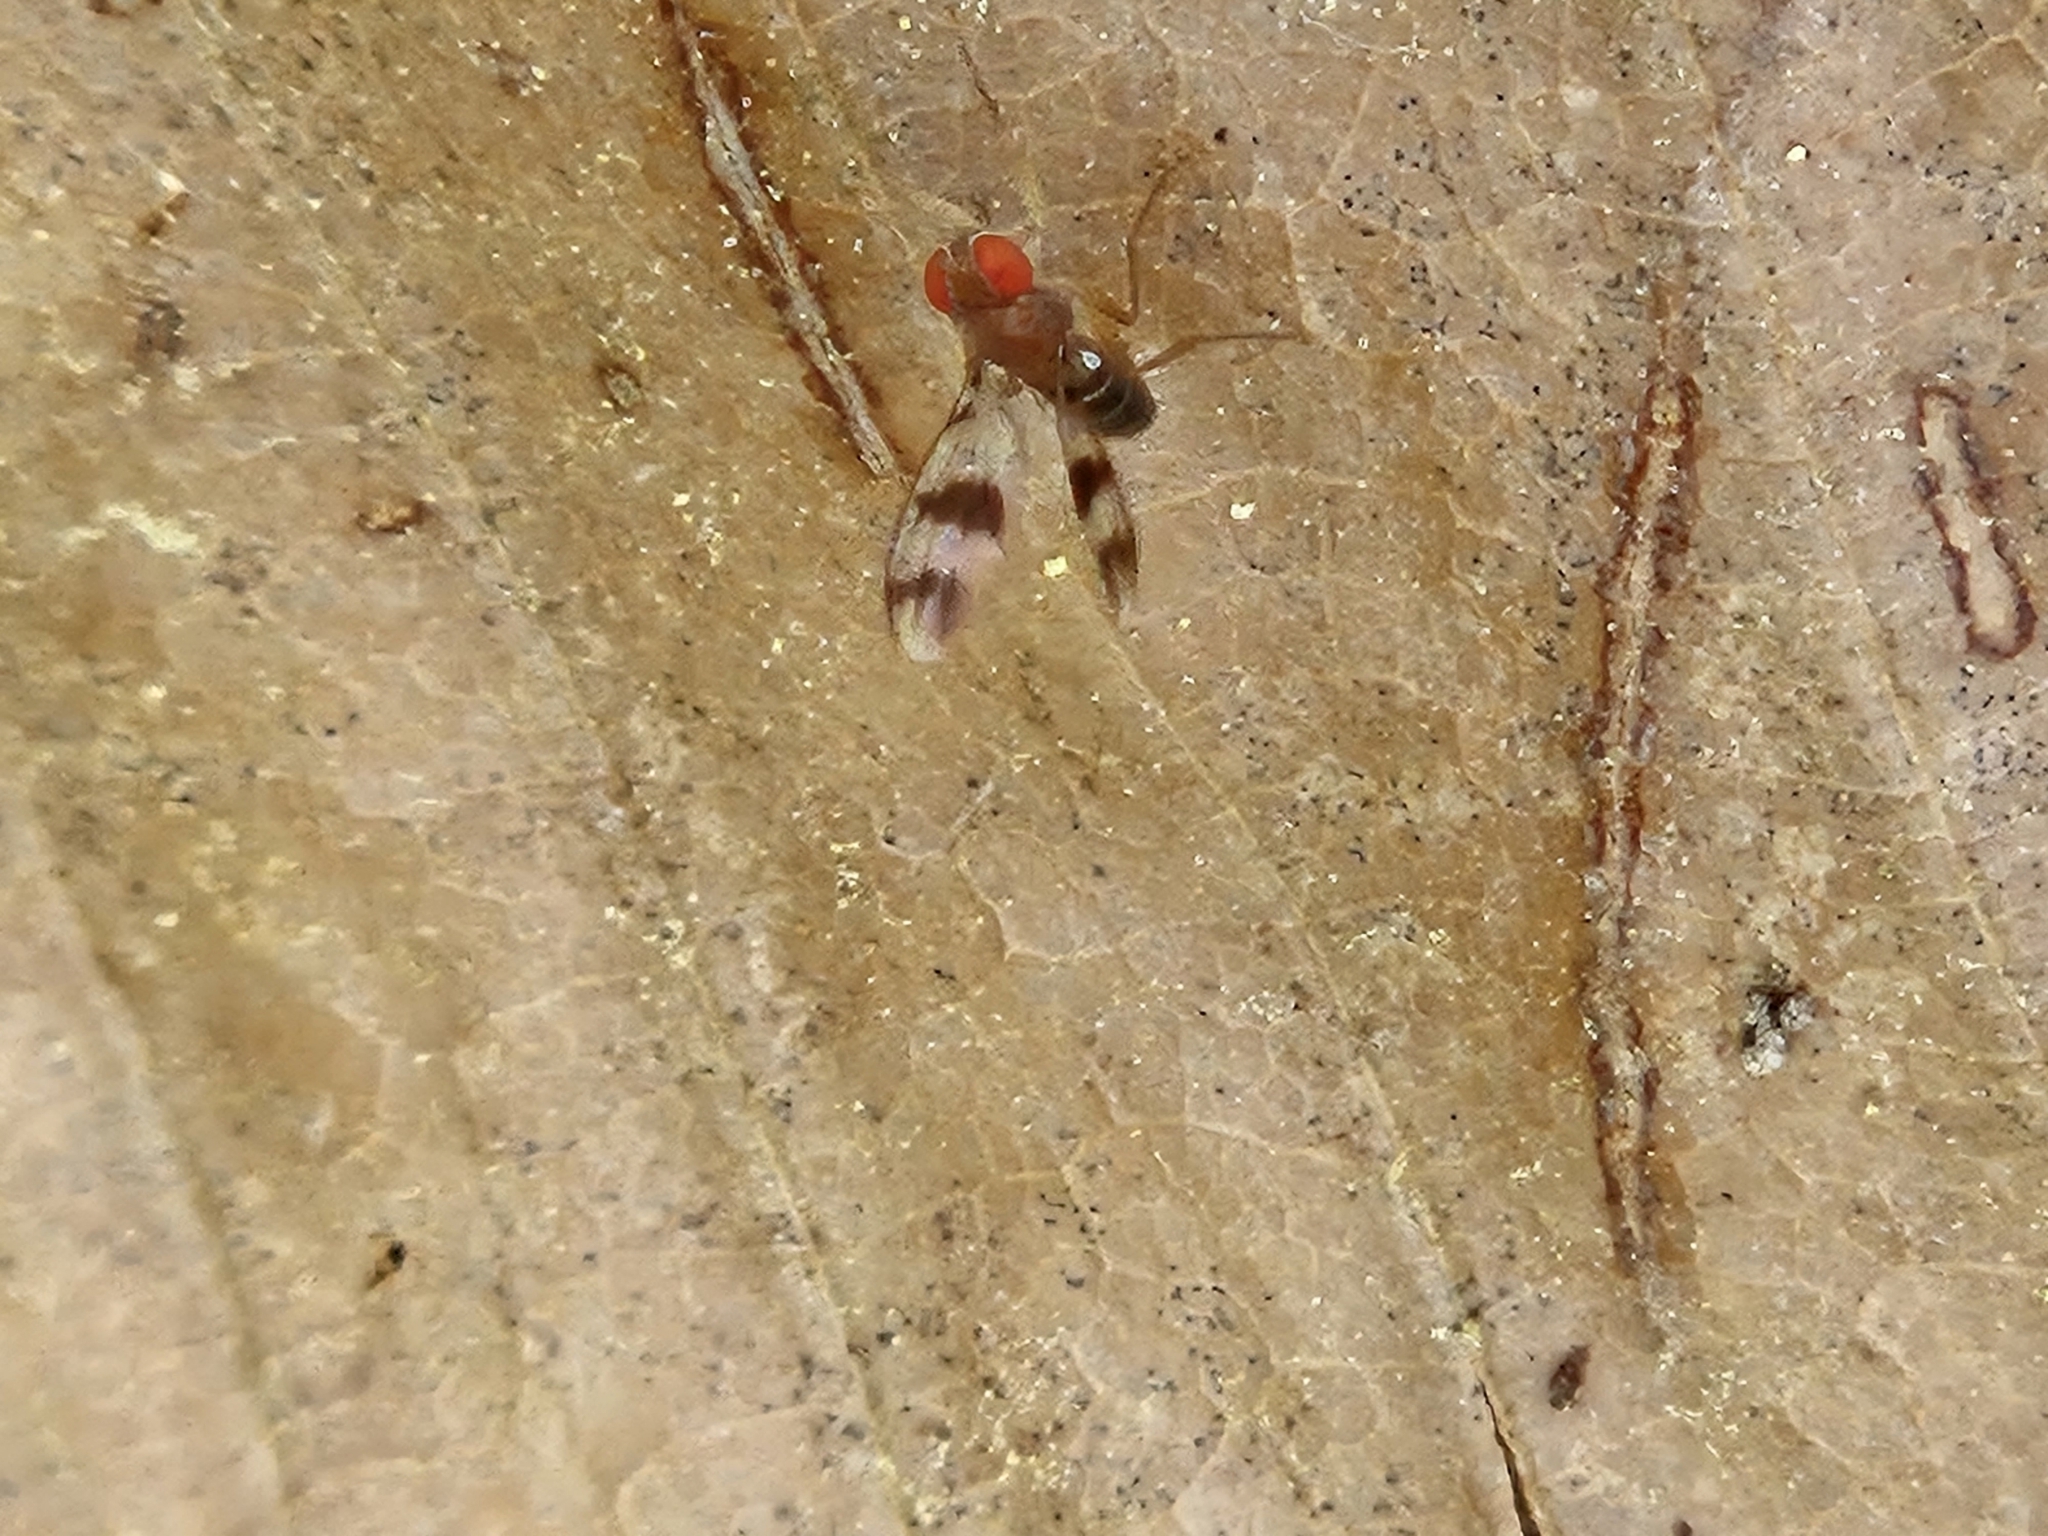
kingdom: Animalia
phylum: Arthropoda
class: Insecta
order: Diptera
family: Drosophilidae
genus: Chymomyza
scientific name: Chymomyza amoena
